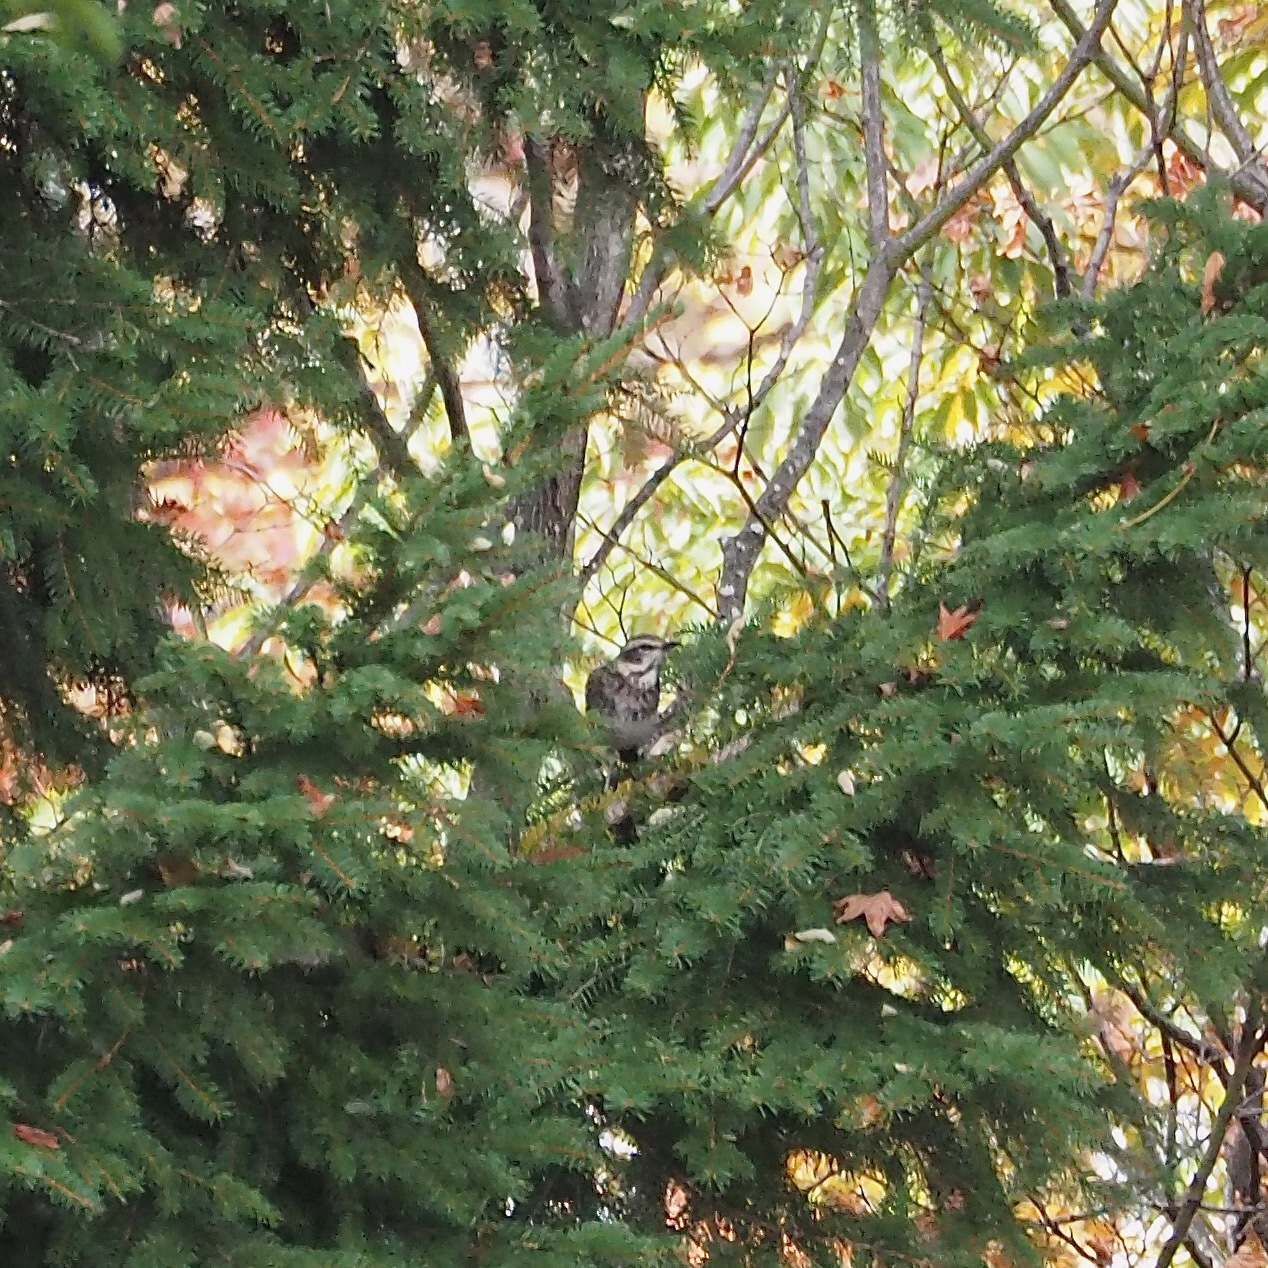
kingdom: Animalia
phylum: Chordata
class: Aves
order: Passeriformes
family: Turdidae
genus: Turdus
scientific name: Turdus eunomus
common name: Dusky thrush
